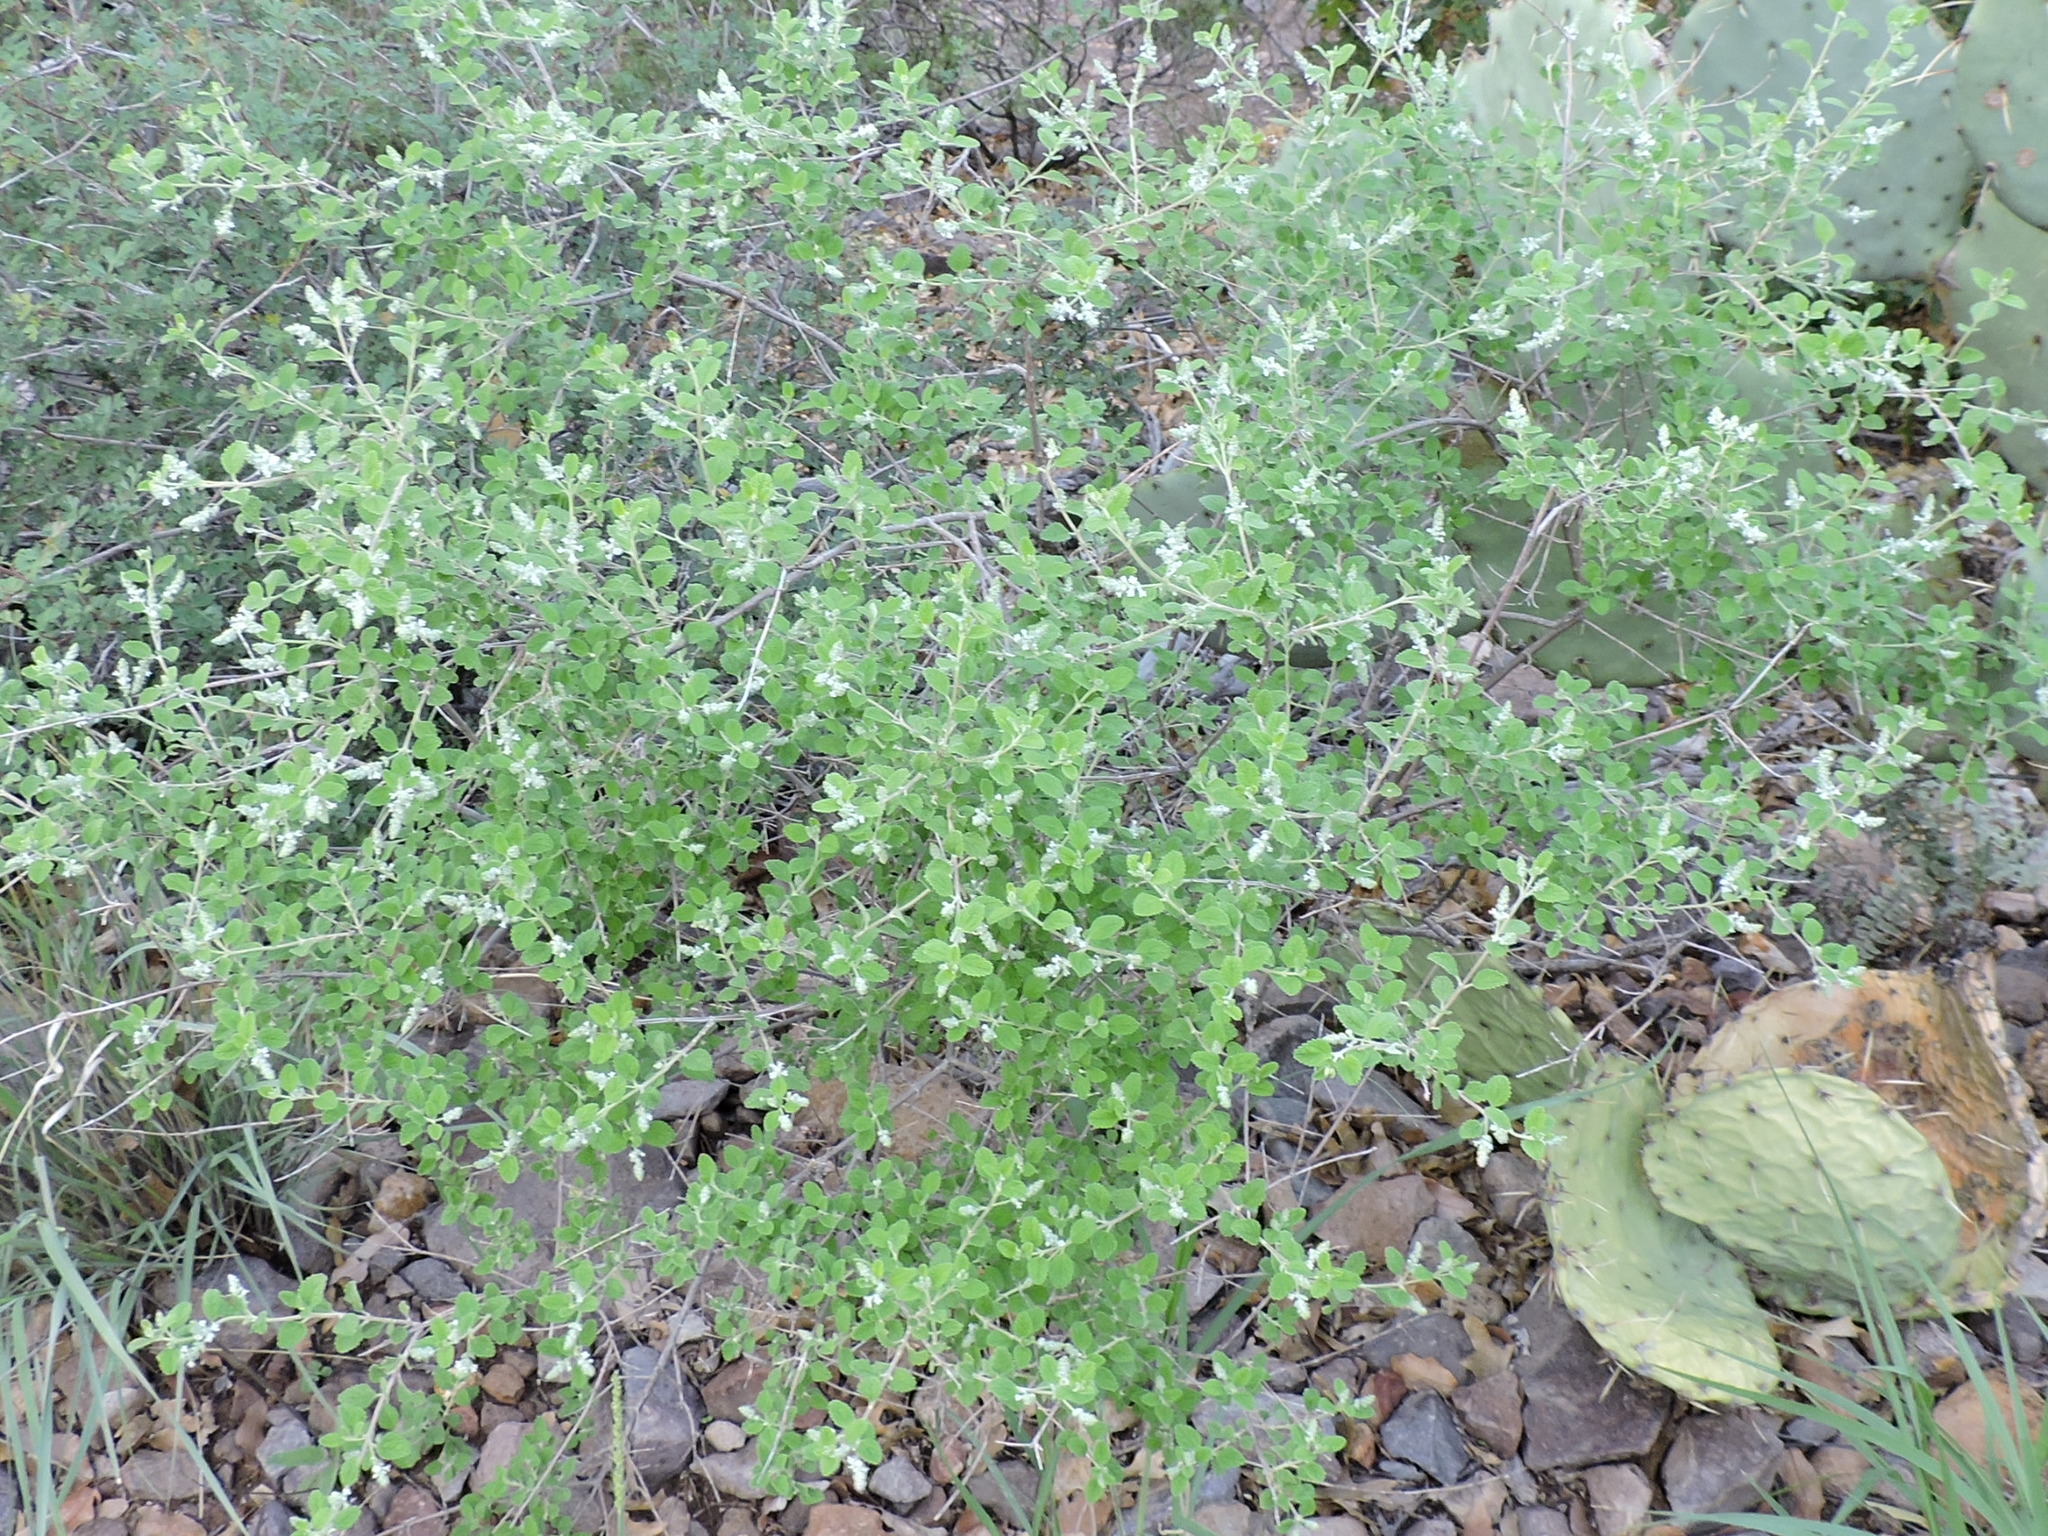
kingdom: Plantae
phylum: Tracheophyta
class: Magnoliopsida
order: Lamiales
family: Verbenaceae
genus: Aloysia
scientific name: Aloysia wrightii
